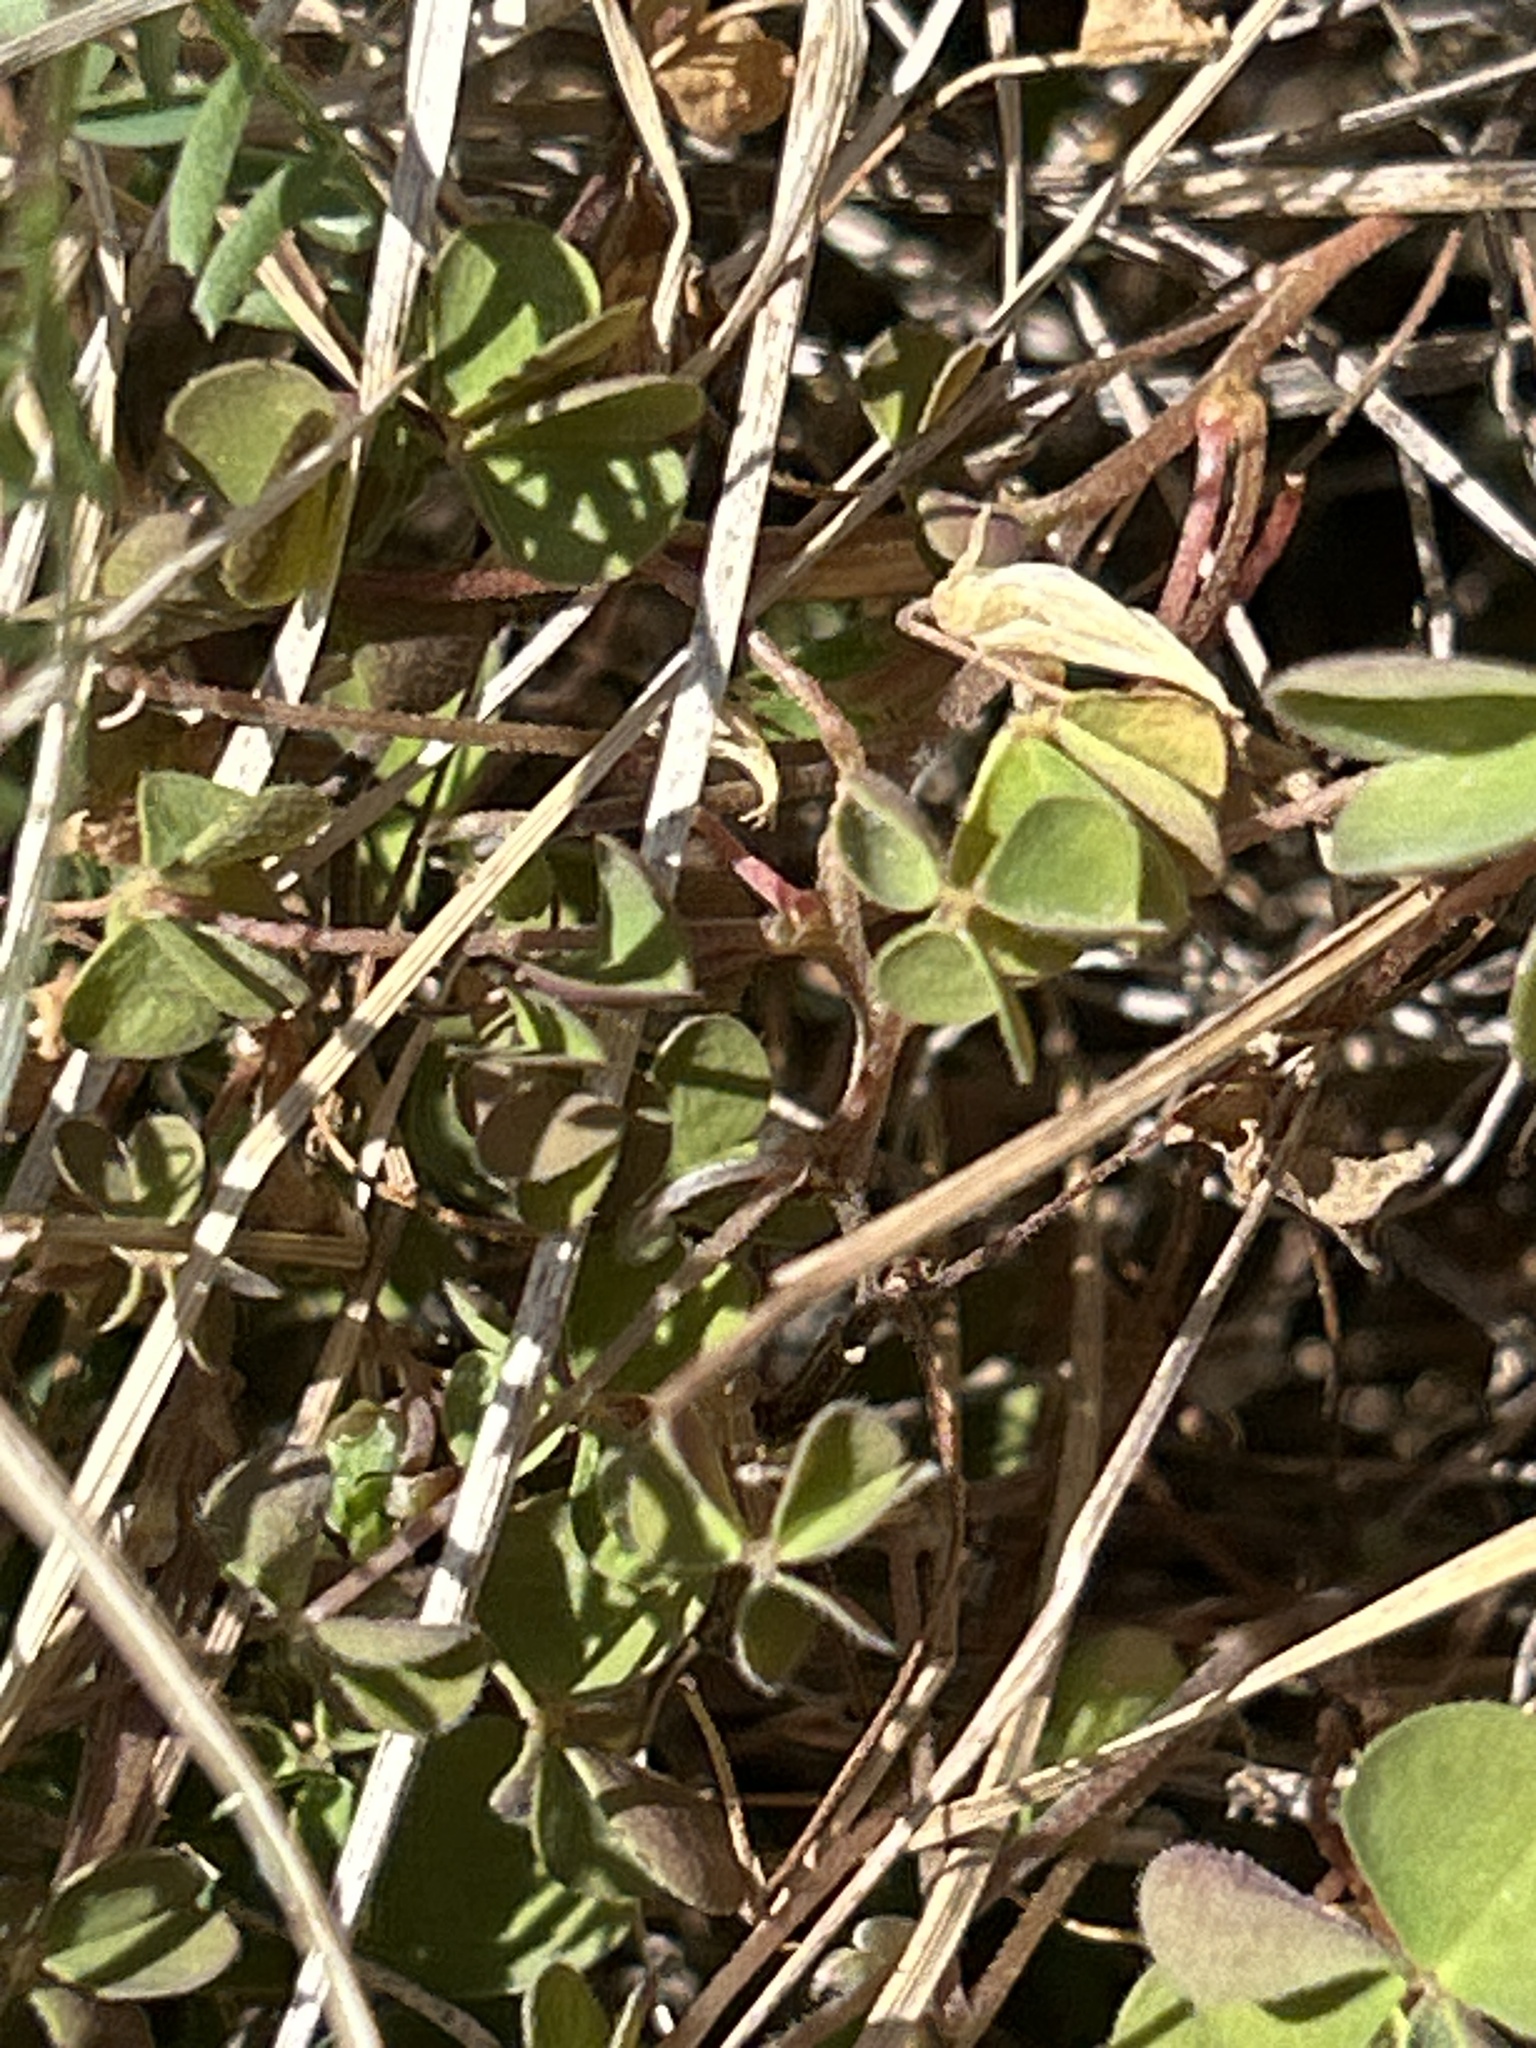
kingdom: Plantae
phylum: Tracheophyta
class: Magnoliopsida
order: Oxalidales
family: Oxalidaceae
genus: Oxalis
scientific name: Oxalis exilis
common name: Least yellow-sorrel
